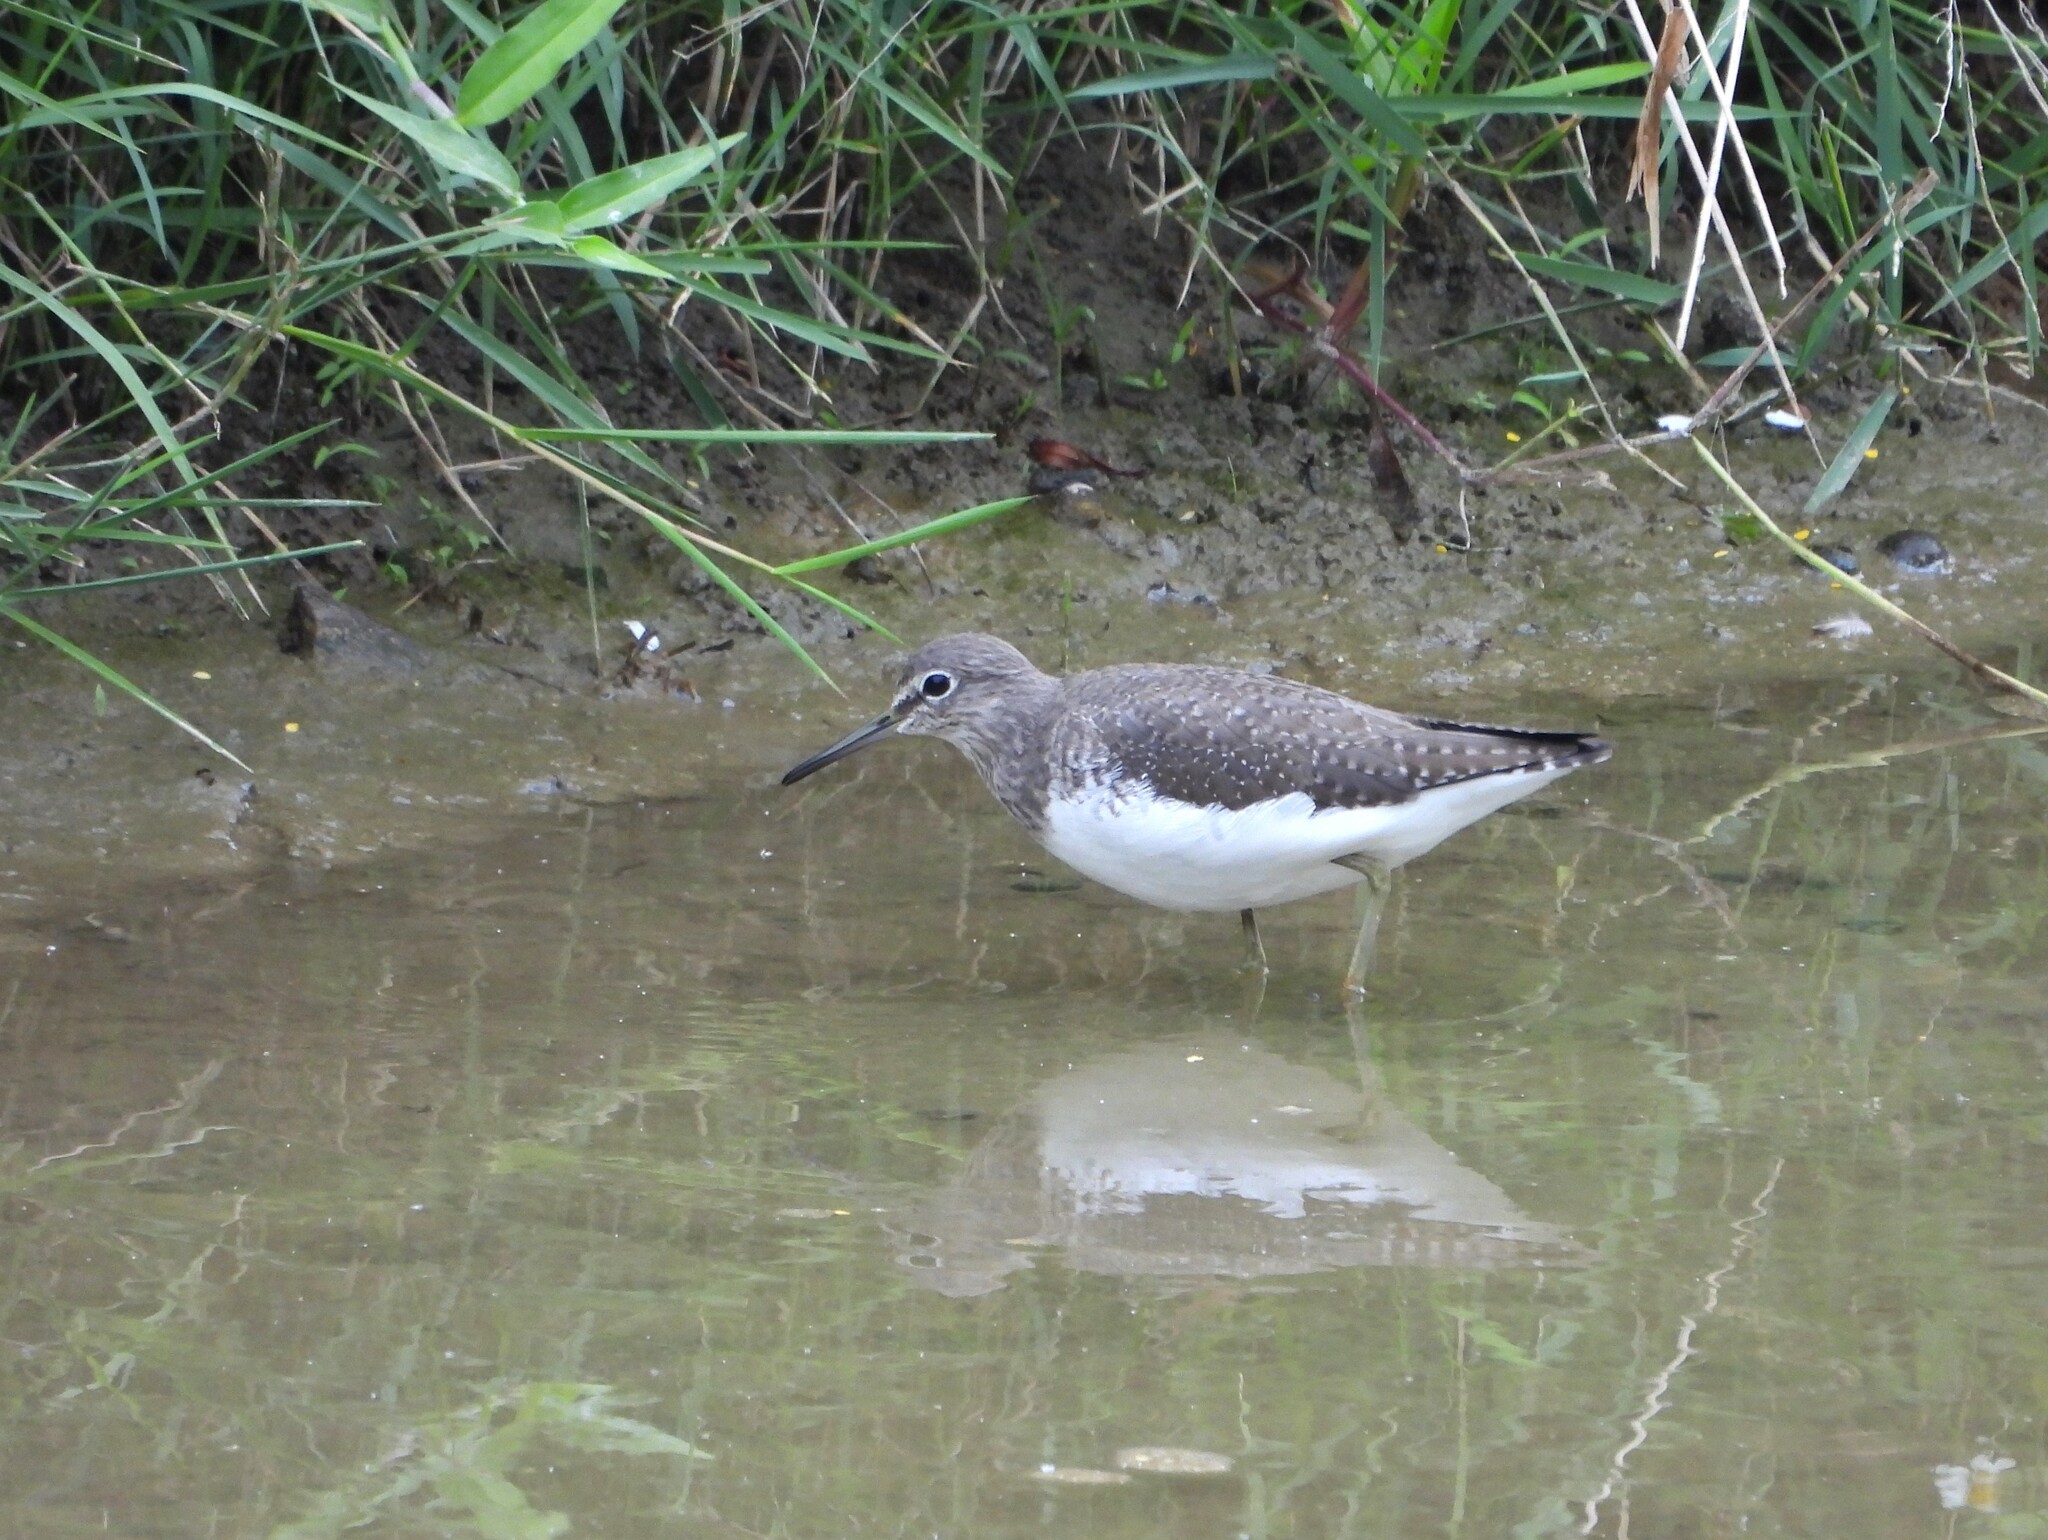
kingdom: Animalia
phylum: Chordata
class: Aves
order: Charadriiformes
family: Scolopacidae
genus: Tringa
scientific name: Tringa ochropus
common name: Green sandpiper
